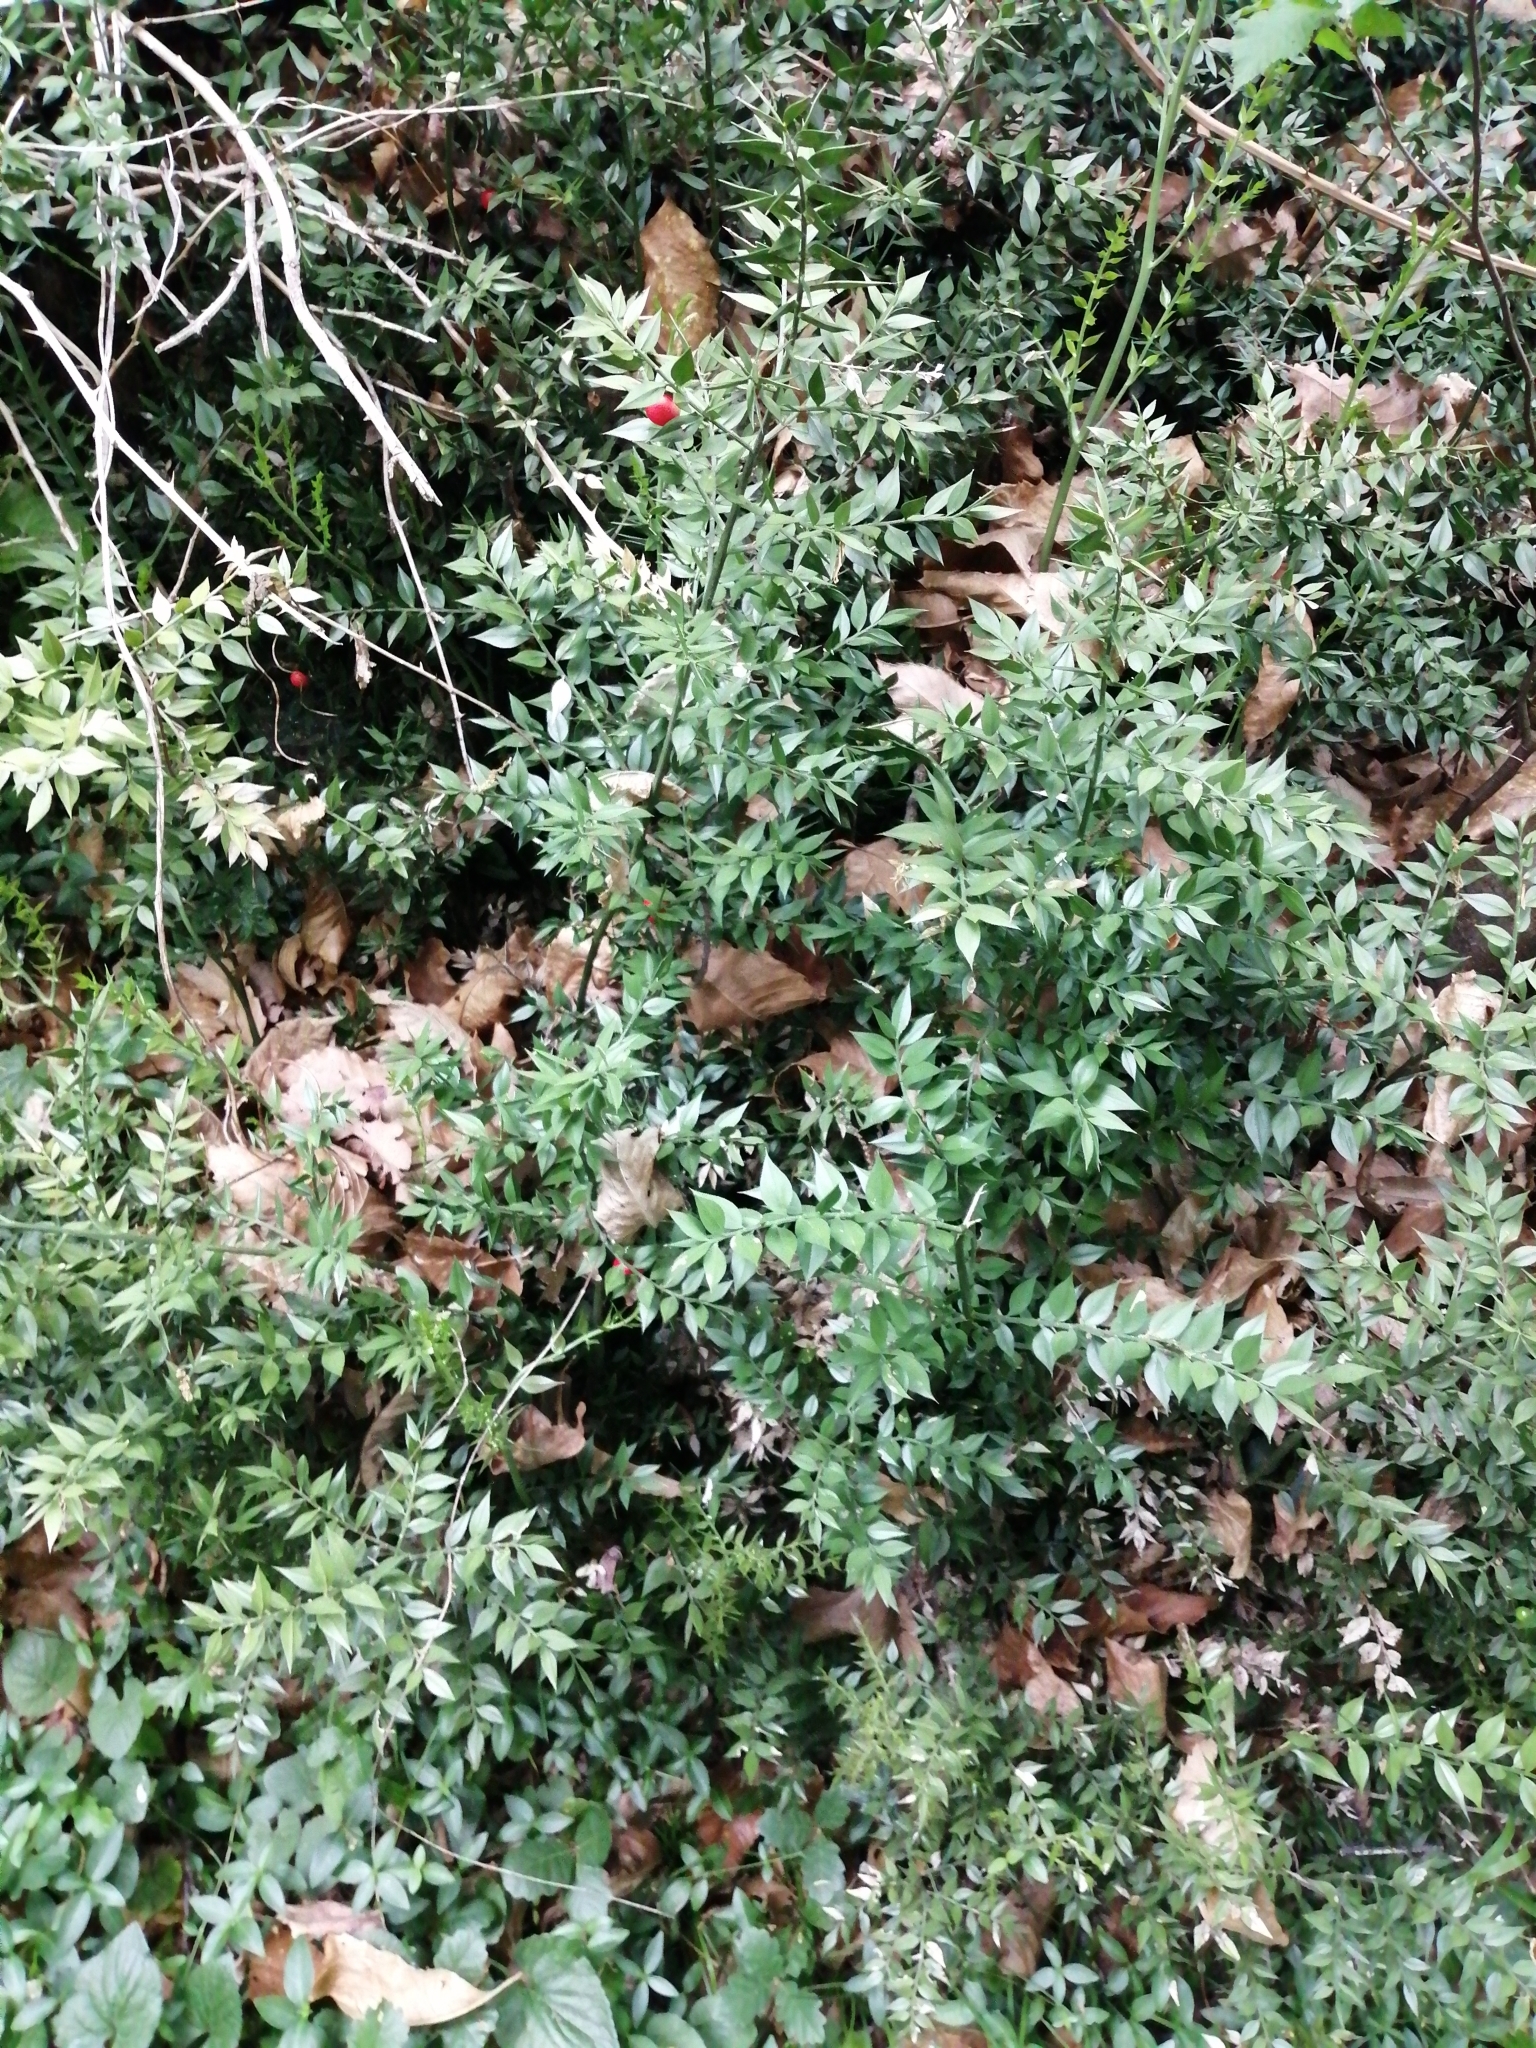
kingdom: Plantae
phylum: Tracheophyta
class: Liliopsida
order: Asparagales
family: Asparagaceae
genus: Ruscus
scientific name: Ruscus aculeatus
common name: Butcher's-broom
